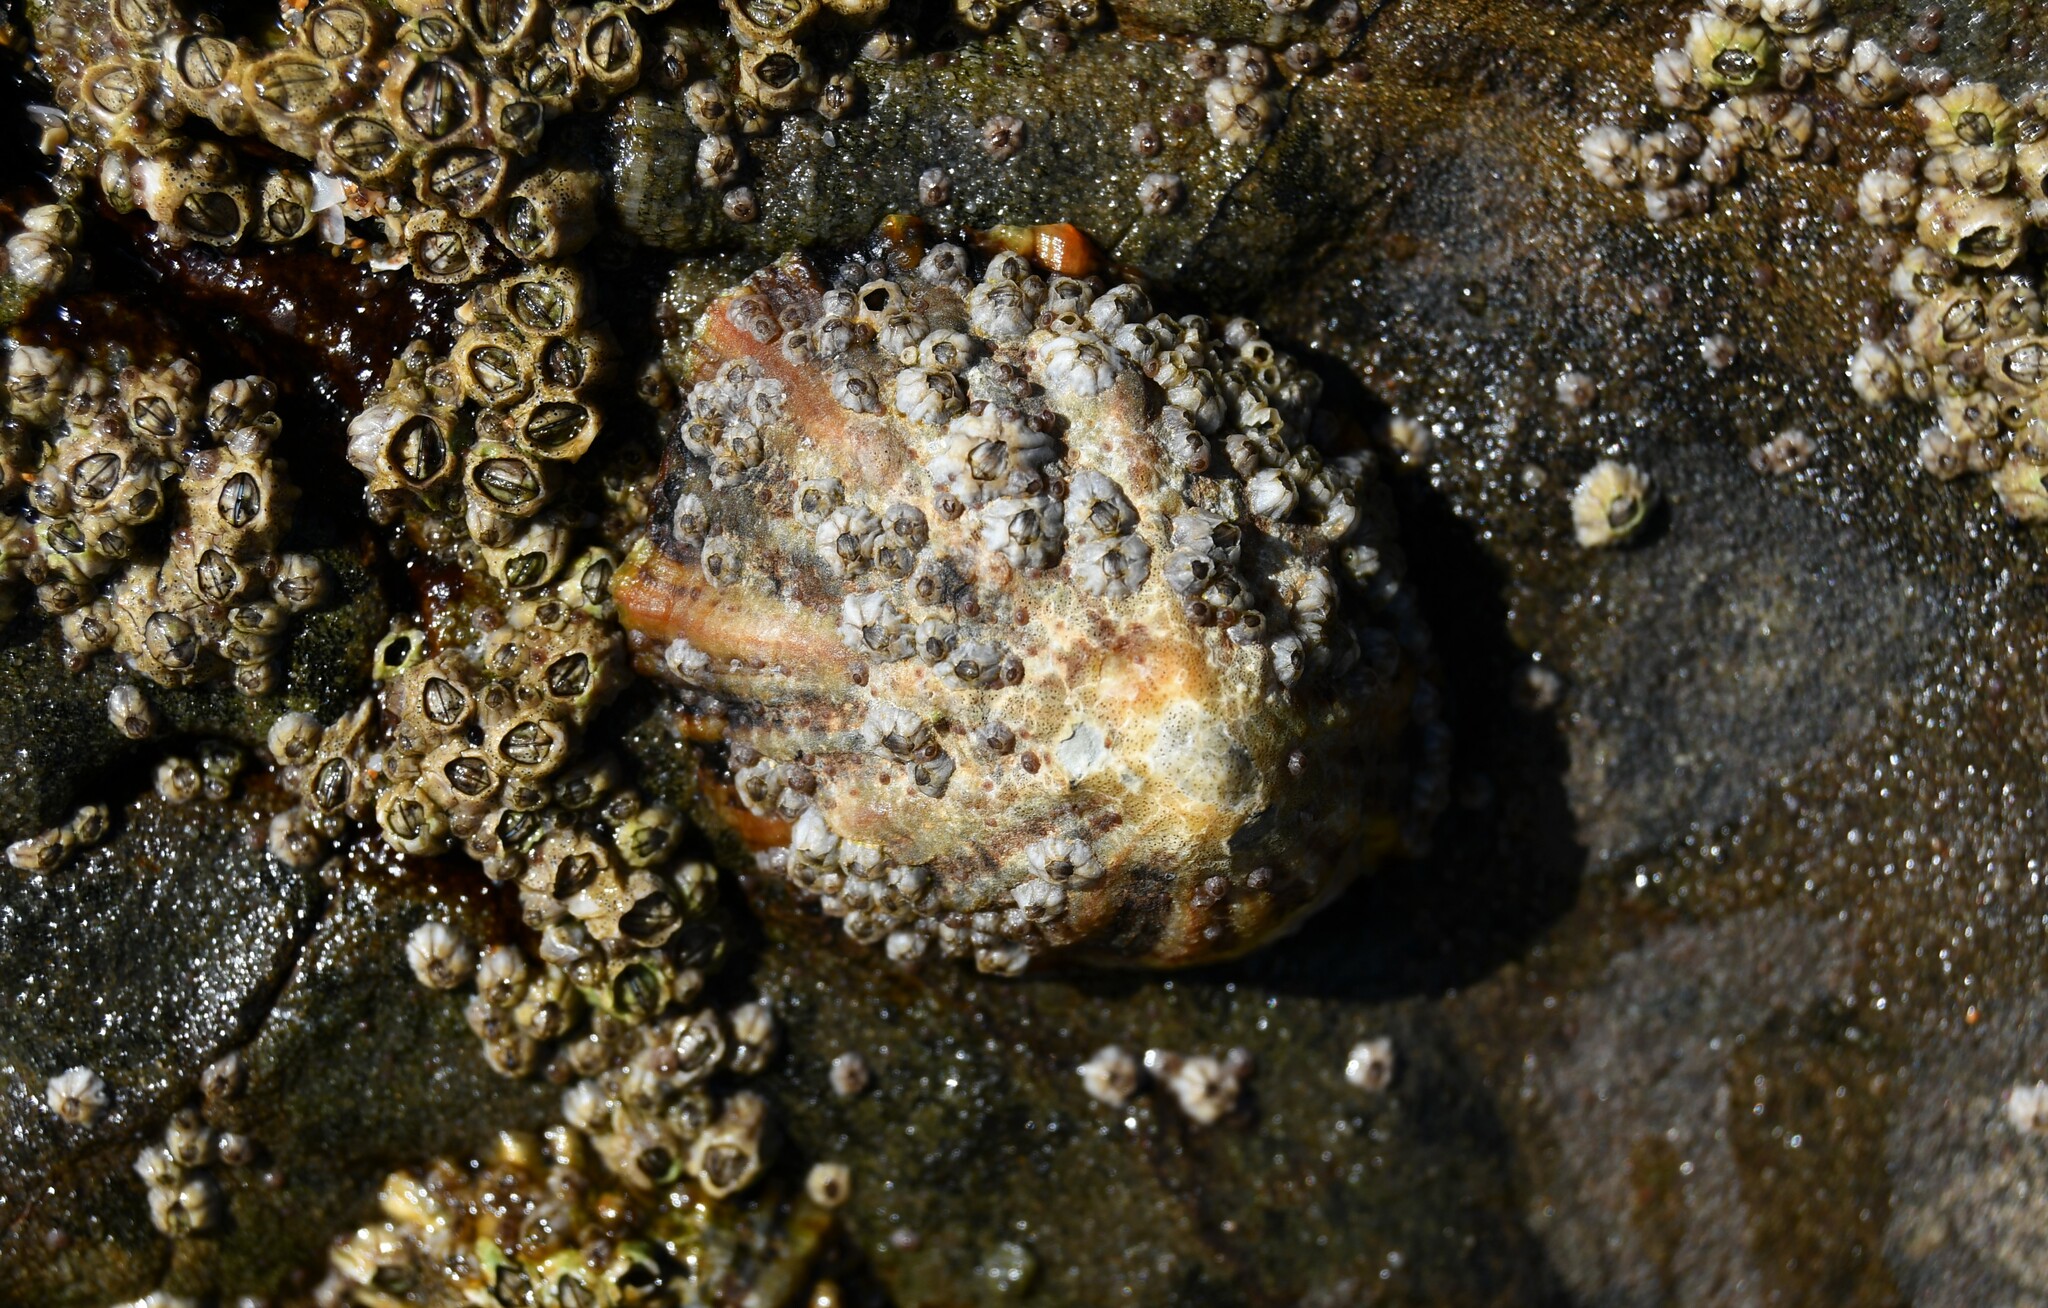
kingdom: Animalia
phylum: Mollusca
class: Gastropoda
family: Patellidae
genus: Patella
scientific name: Patella vulgata
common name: Common limpet
